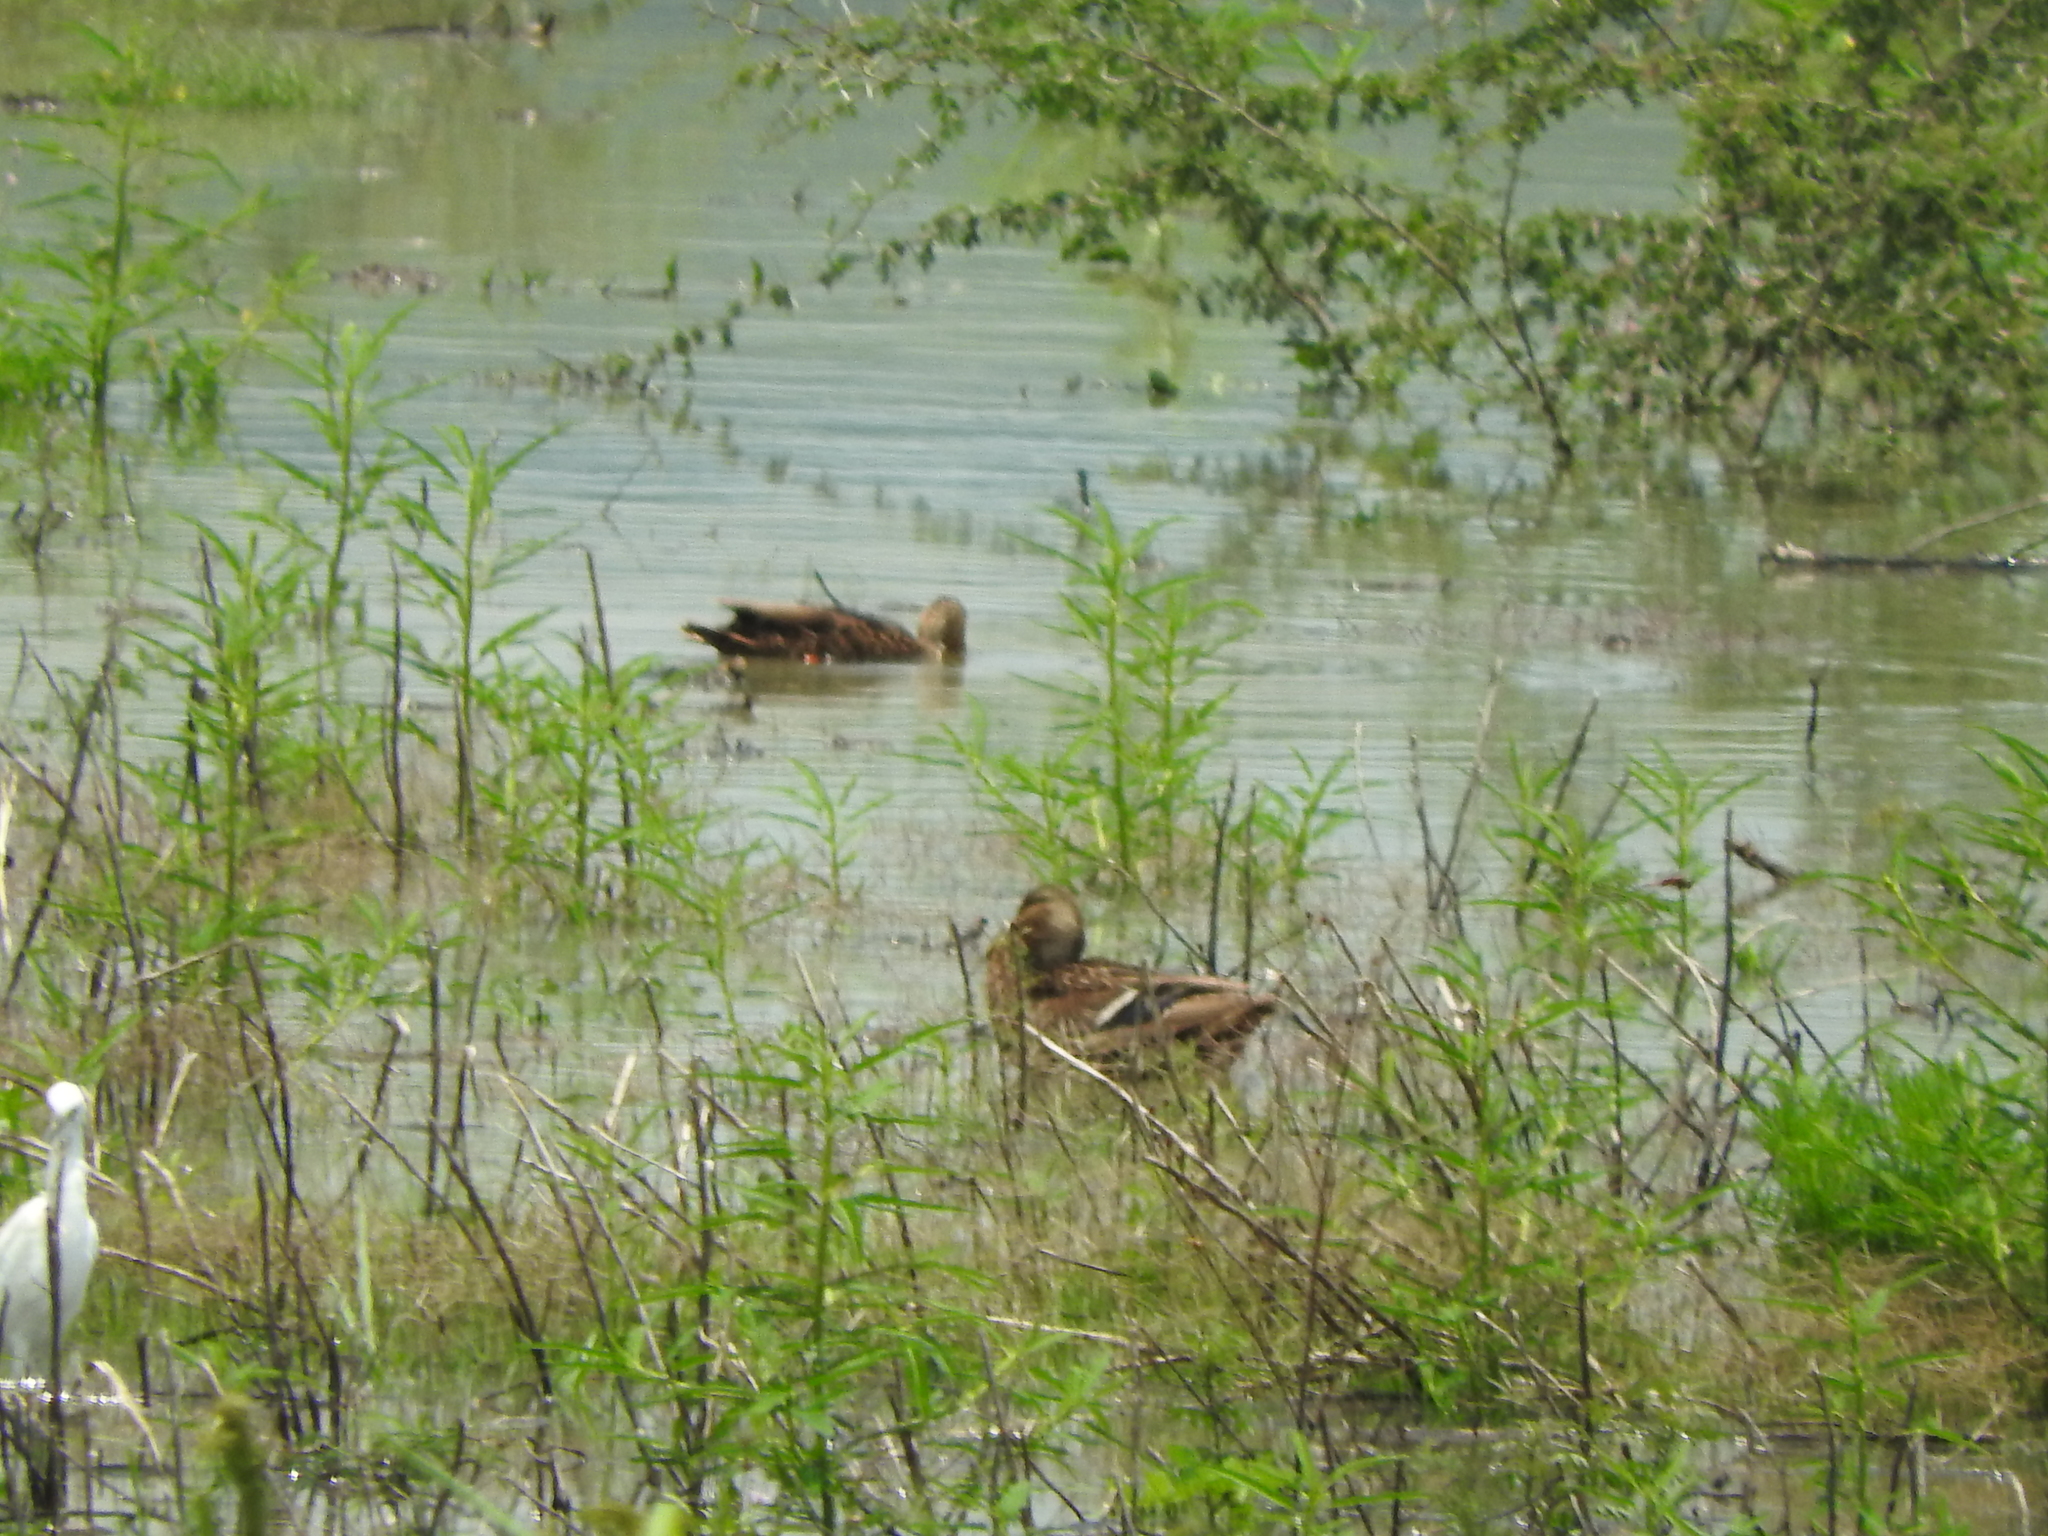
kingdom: Animalia
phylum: Chordata
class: Aves
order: Anseriformes
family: Anatidae
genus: Anas
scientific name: Anas diazi
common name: Mexican duck
